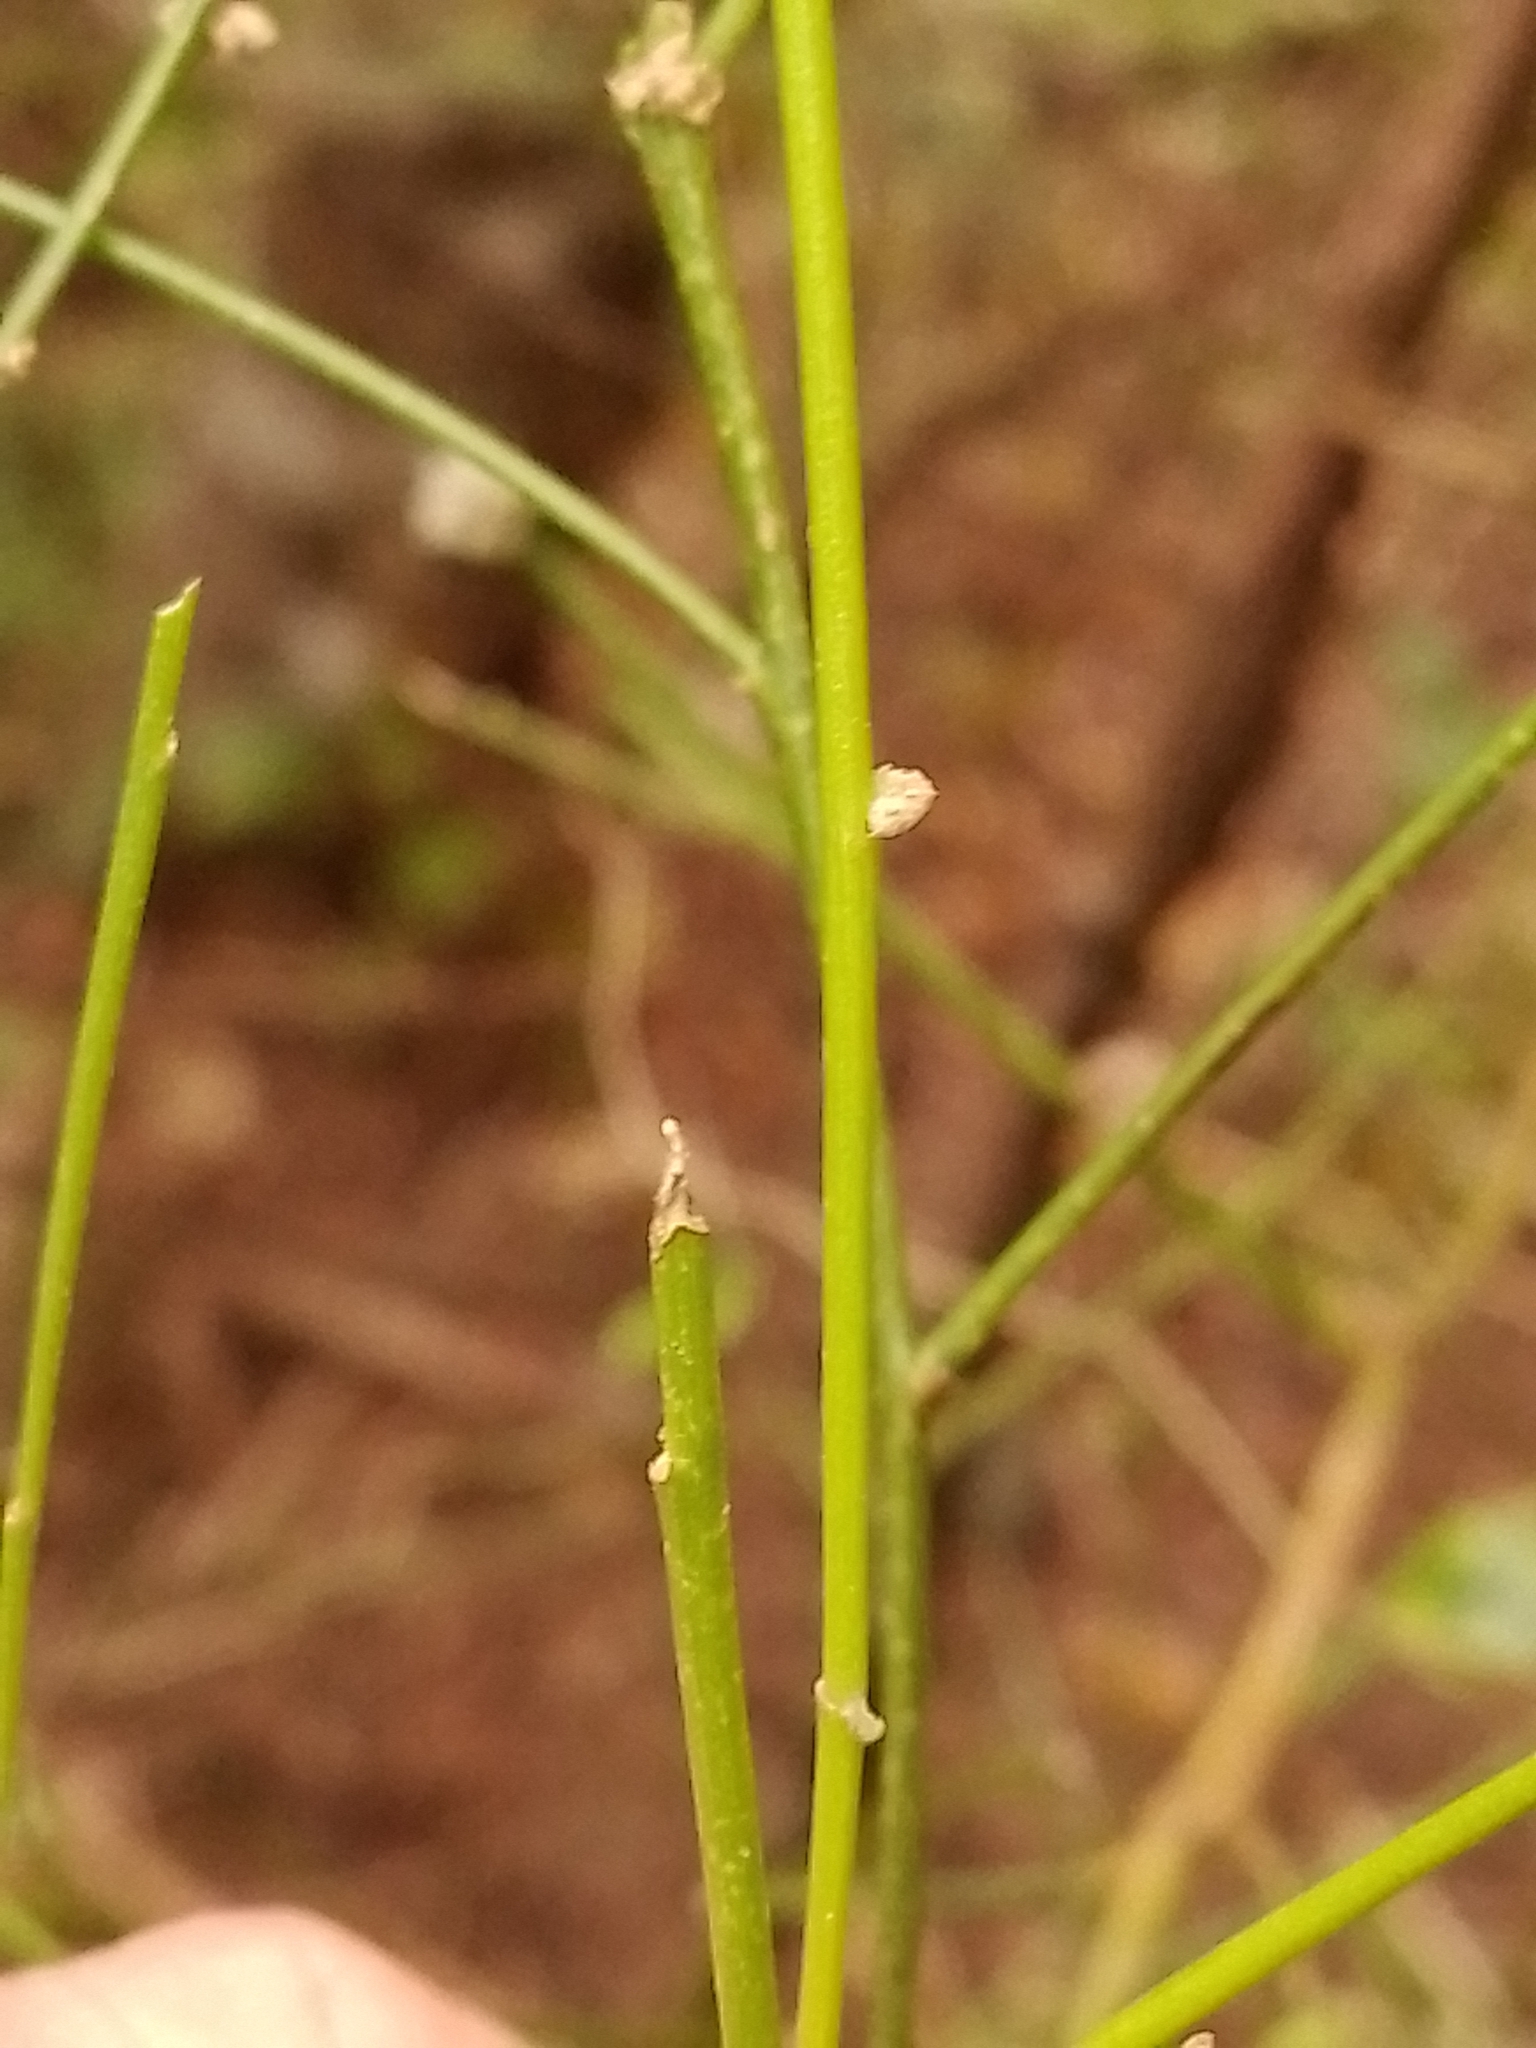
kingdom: Plantae
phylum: Tracheophyta
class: Magnoliopsida
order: Fabales
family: Fabaceae
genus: Carmichaelia
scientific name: Carmichaelia australis
